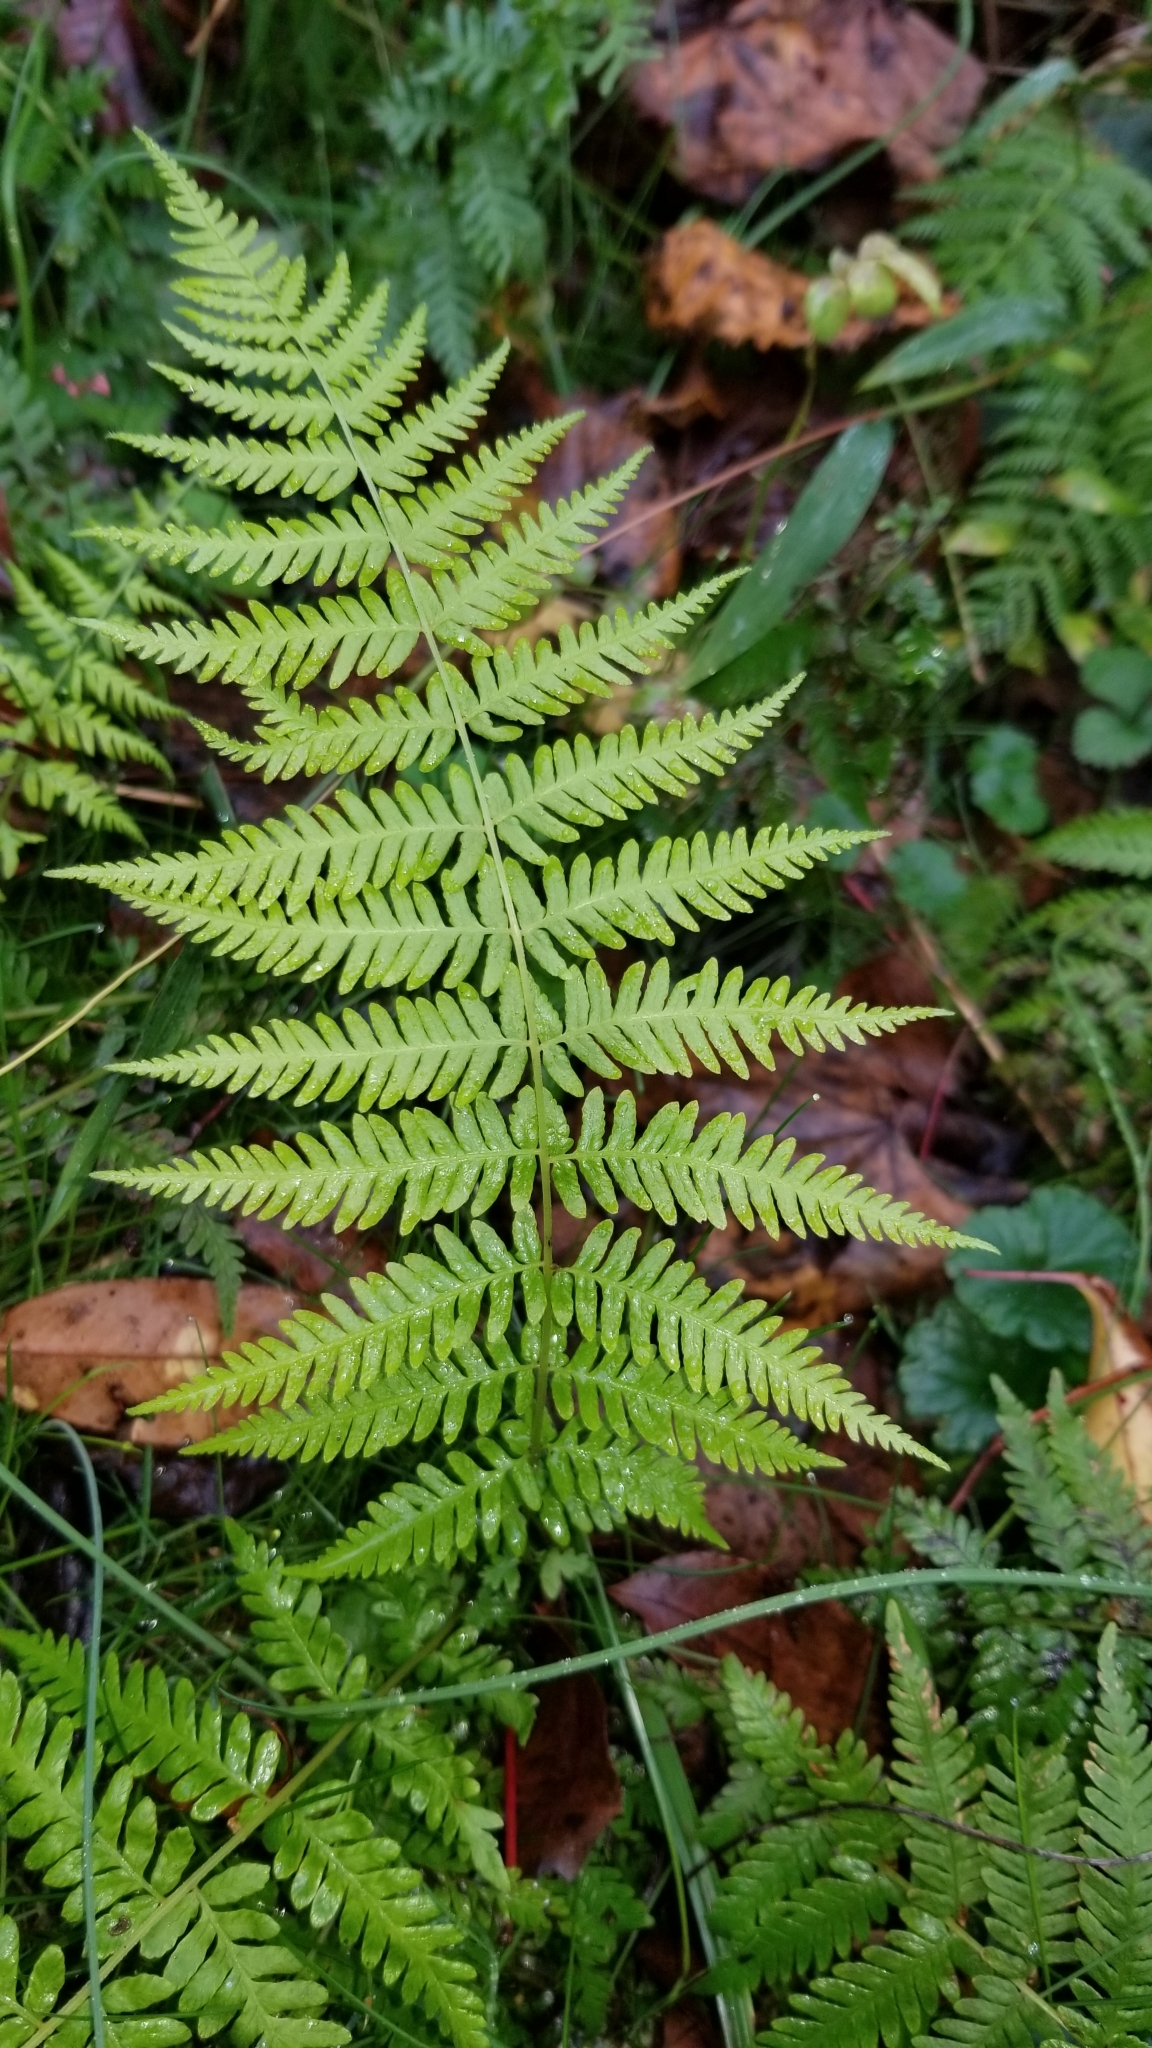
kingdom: Plantae
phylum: Tracheophyta
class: Polypodiopsida
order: Polypodiales
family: Thelypteridaceae
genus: Amauropelta
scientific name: Amauropelta noveboracensis
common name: New york fern
